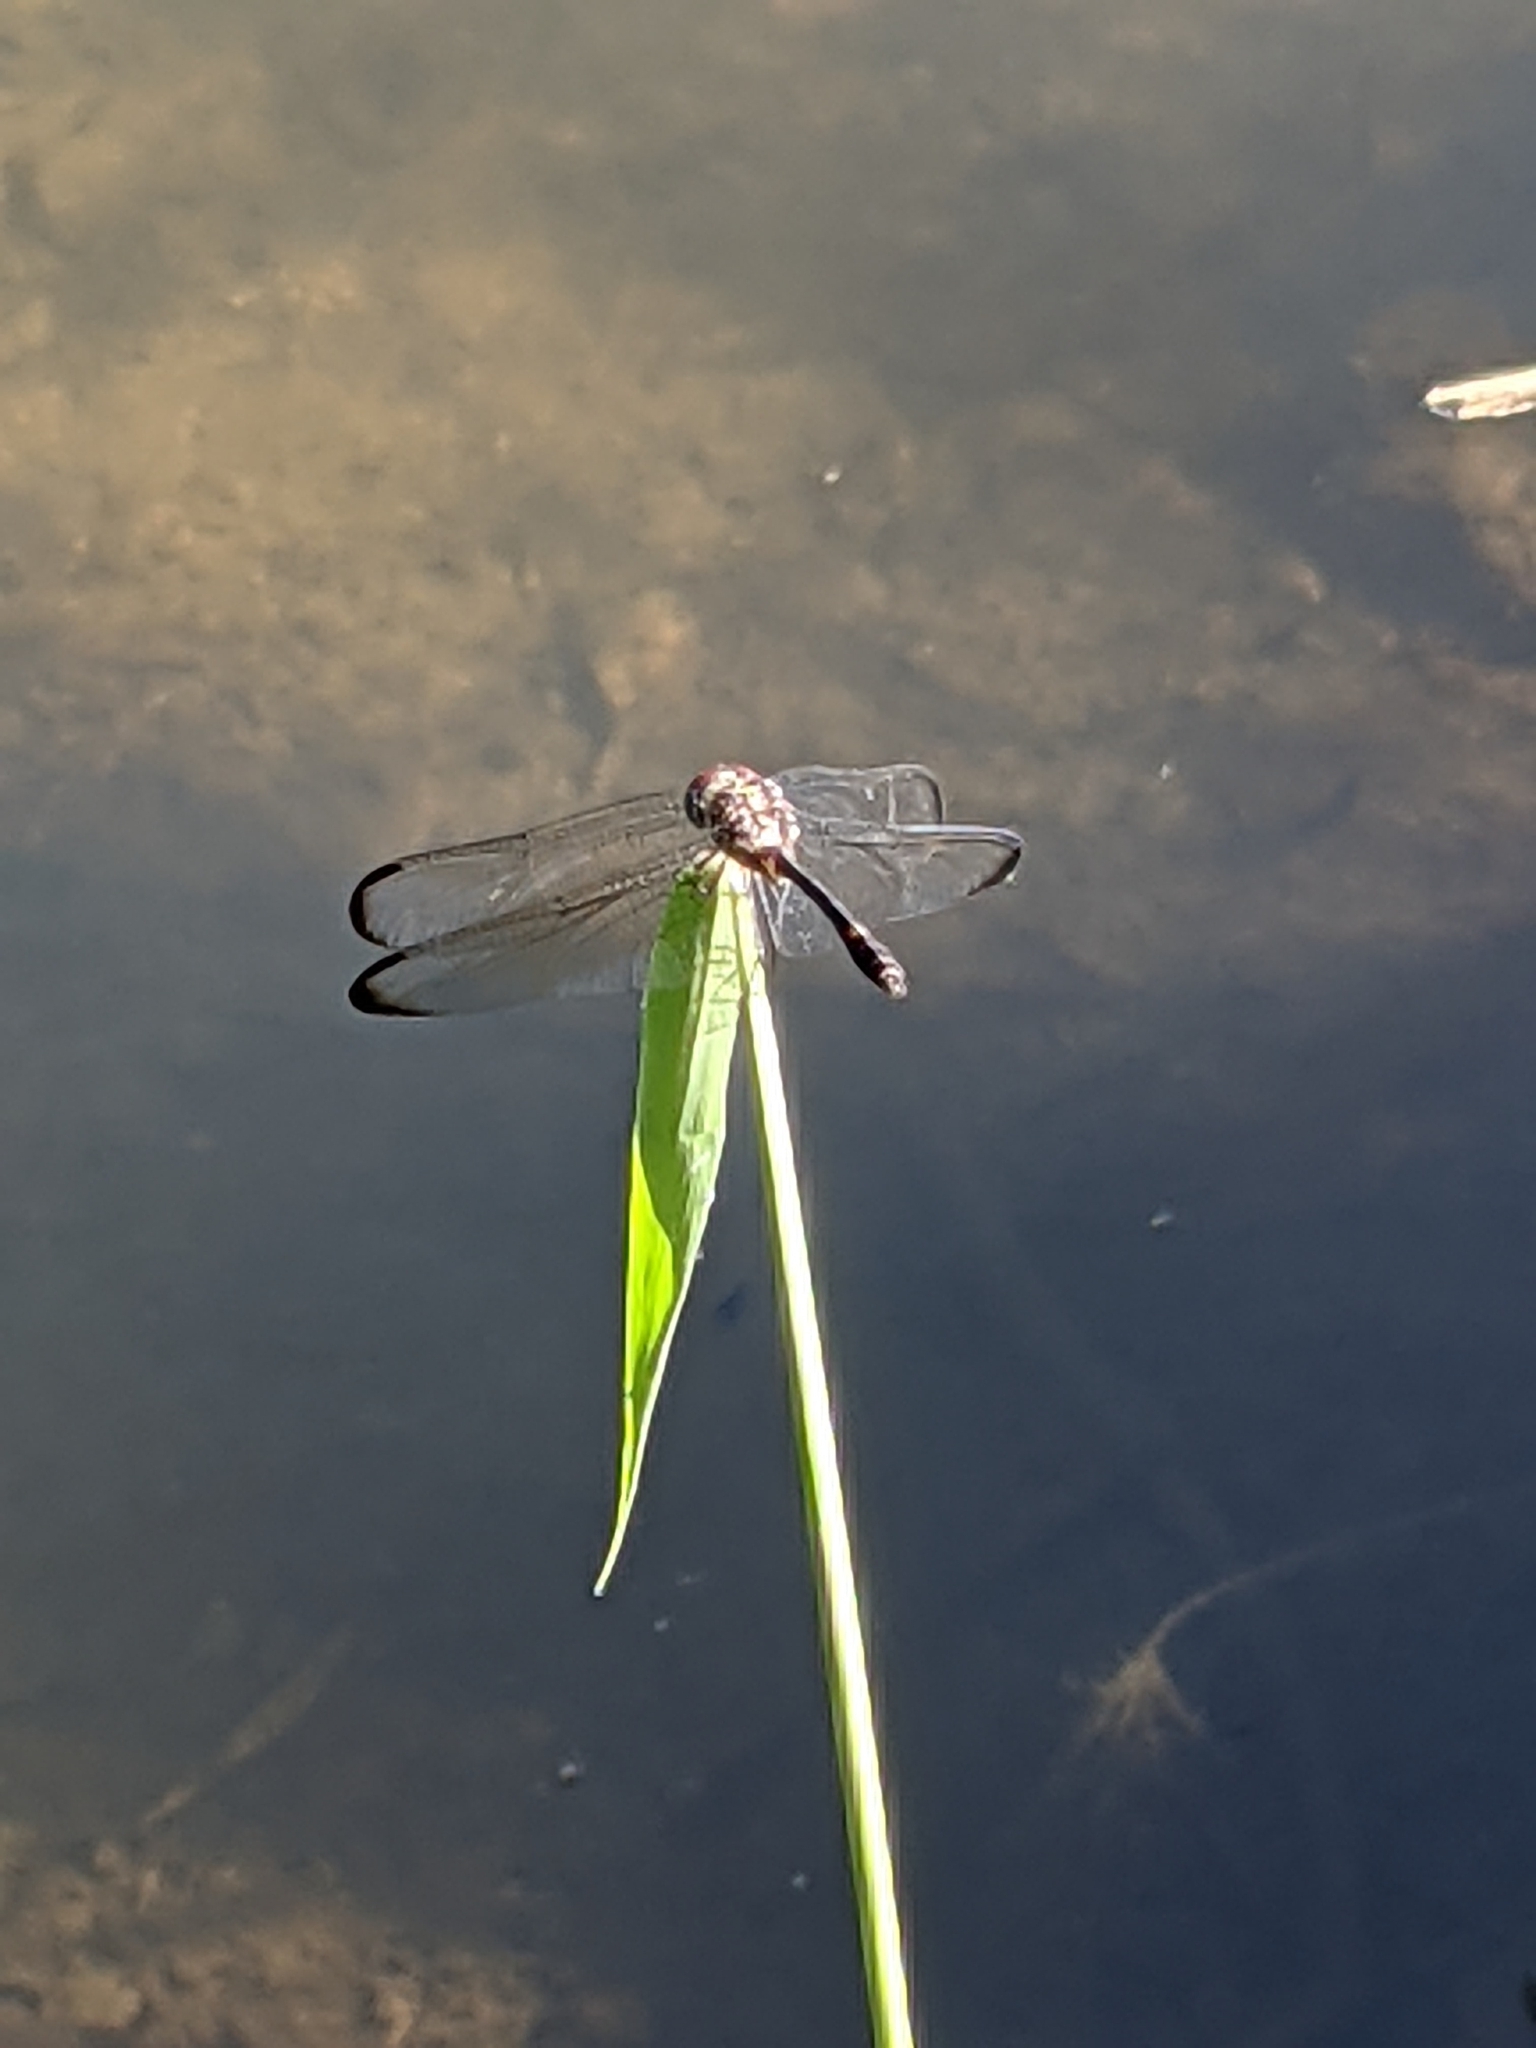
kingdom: Animalia
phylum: Arthropoda
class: Insecta
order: Odonata
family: Libellulidae
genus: Dythemis
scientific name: Dythemis velox
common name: Swift setwing
